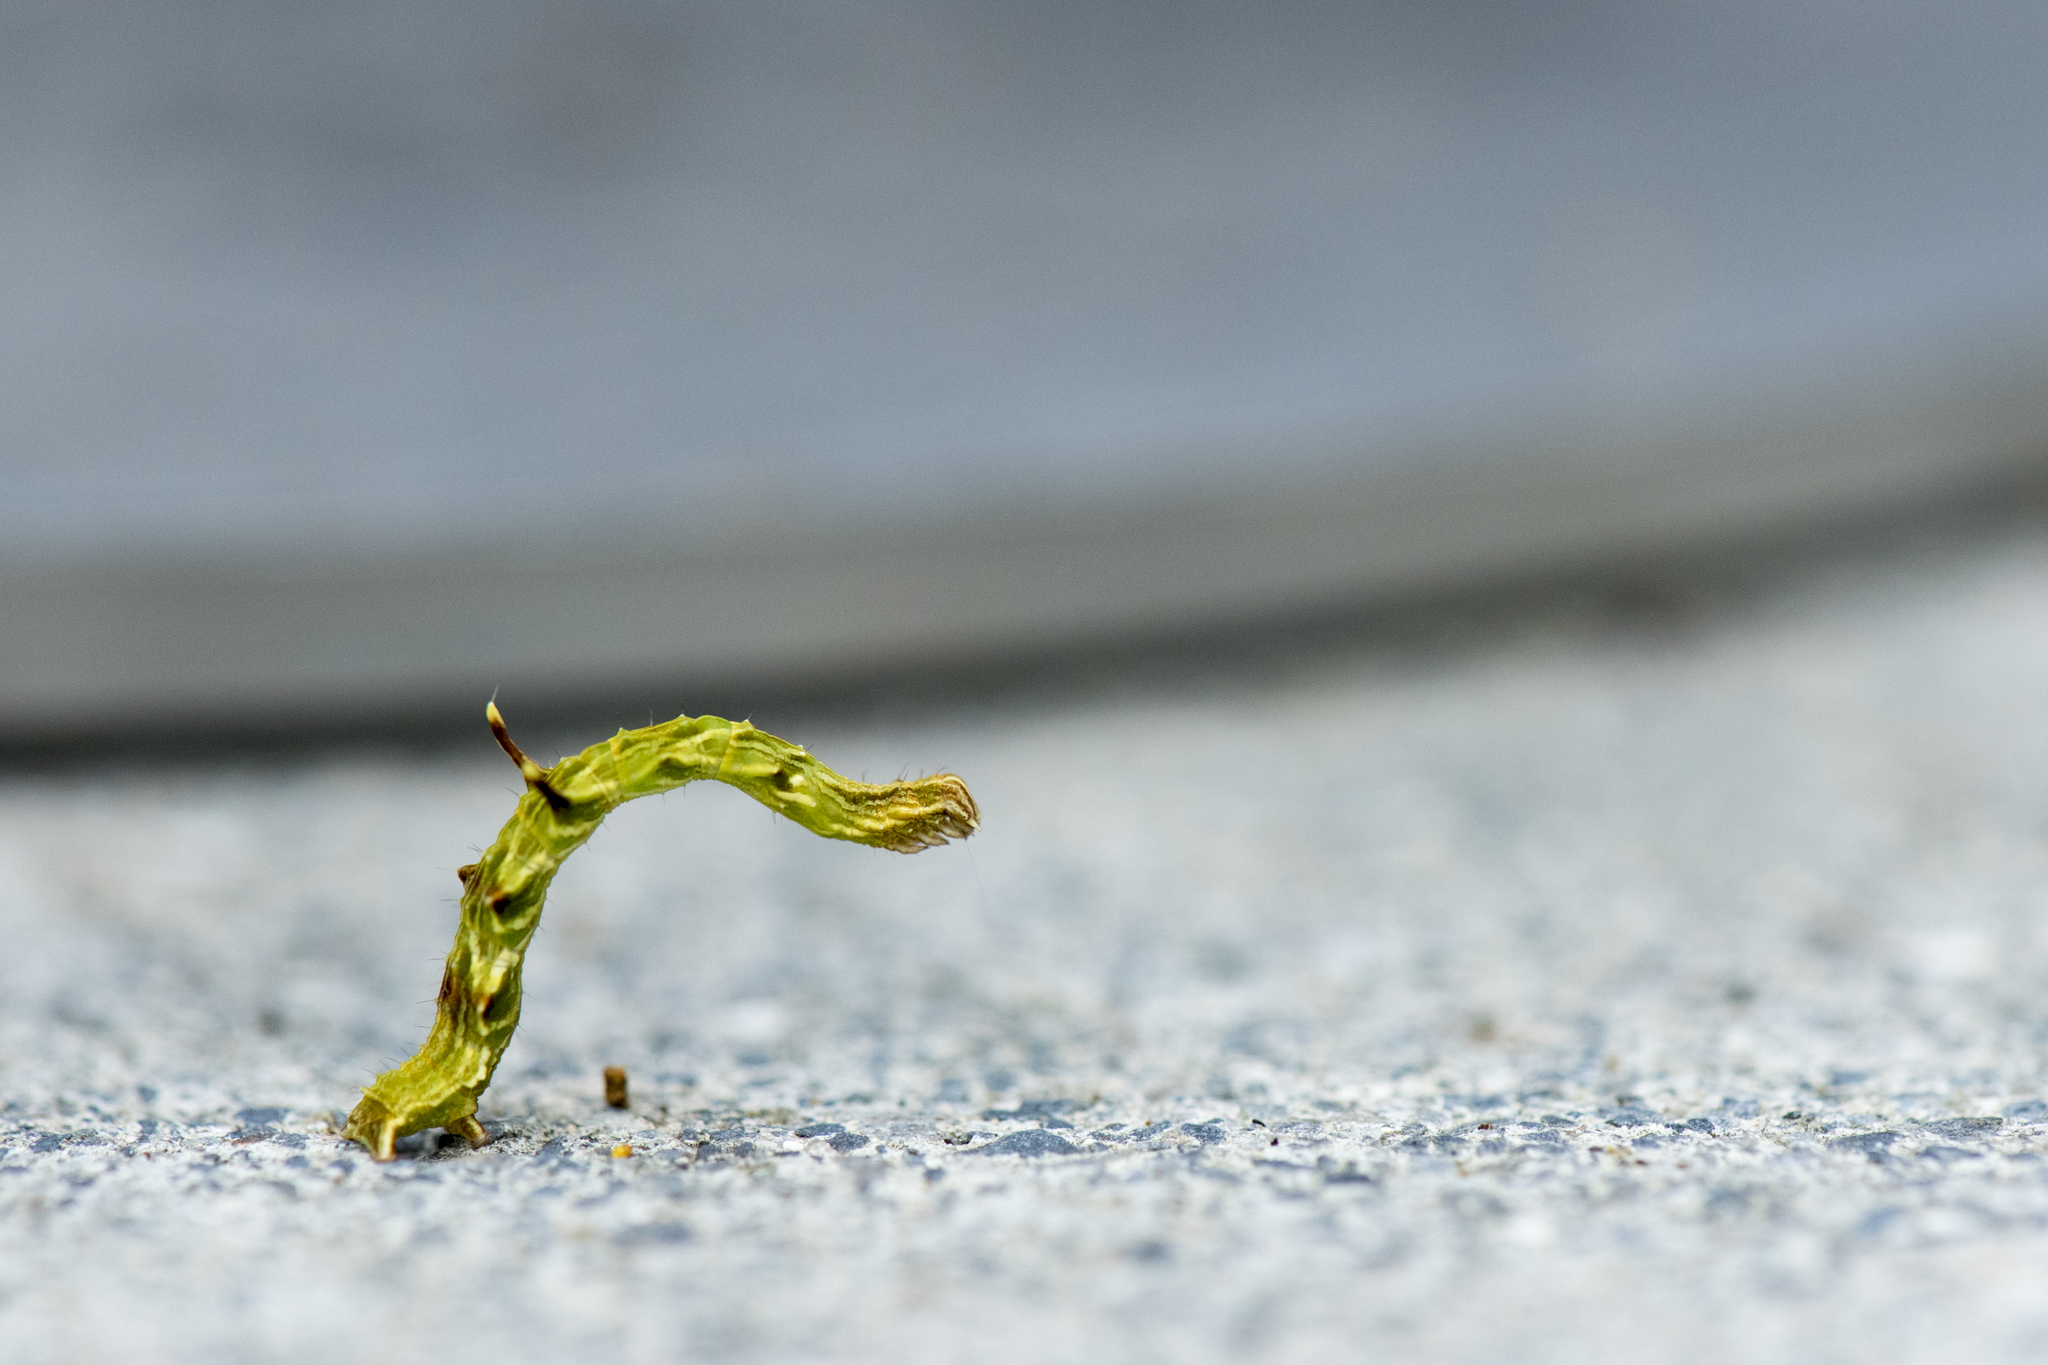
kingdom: Animalia
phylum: Arthropoda
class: Insecta
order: Lepidoptera
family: Geometridae
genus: Traminda
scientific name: Traminda aventiaria
